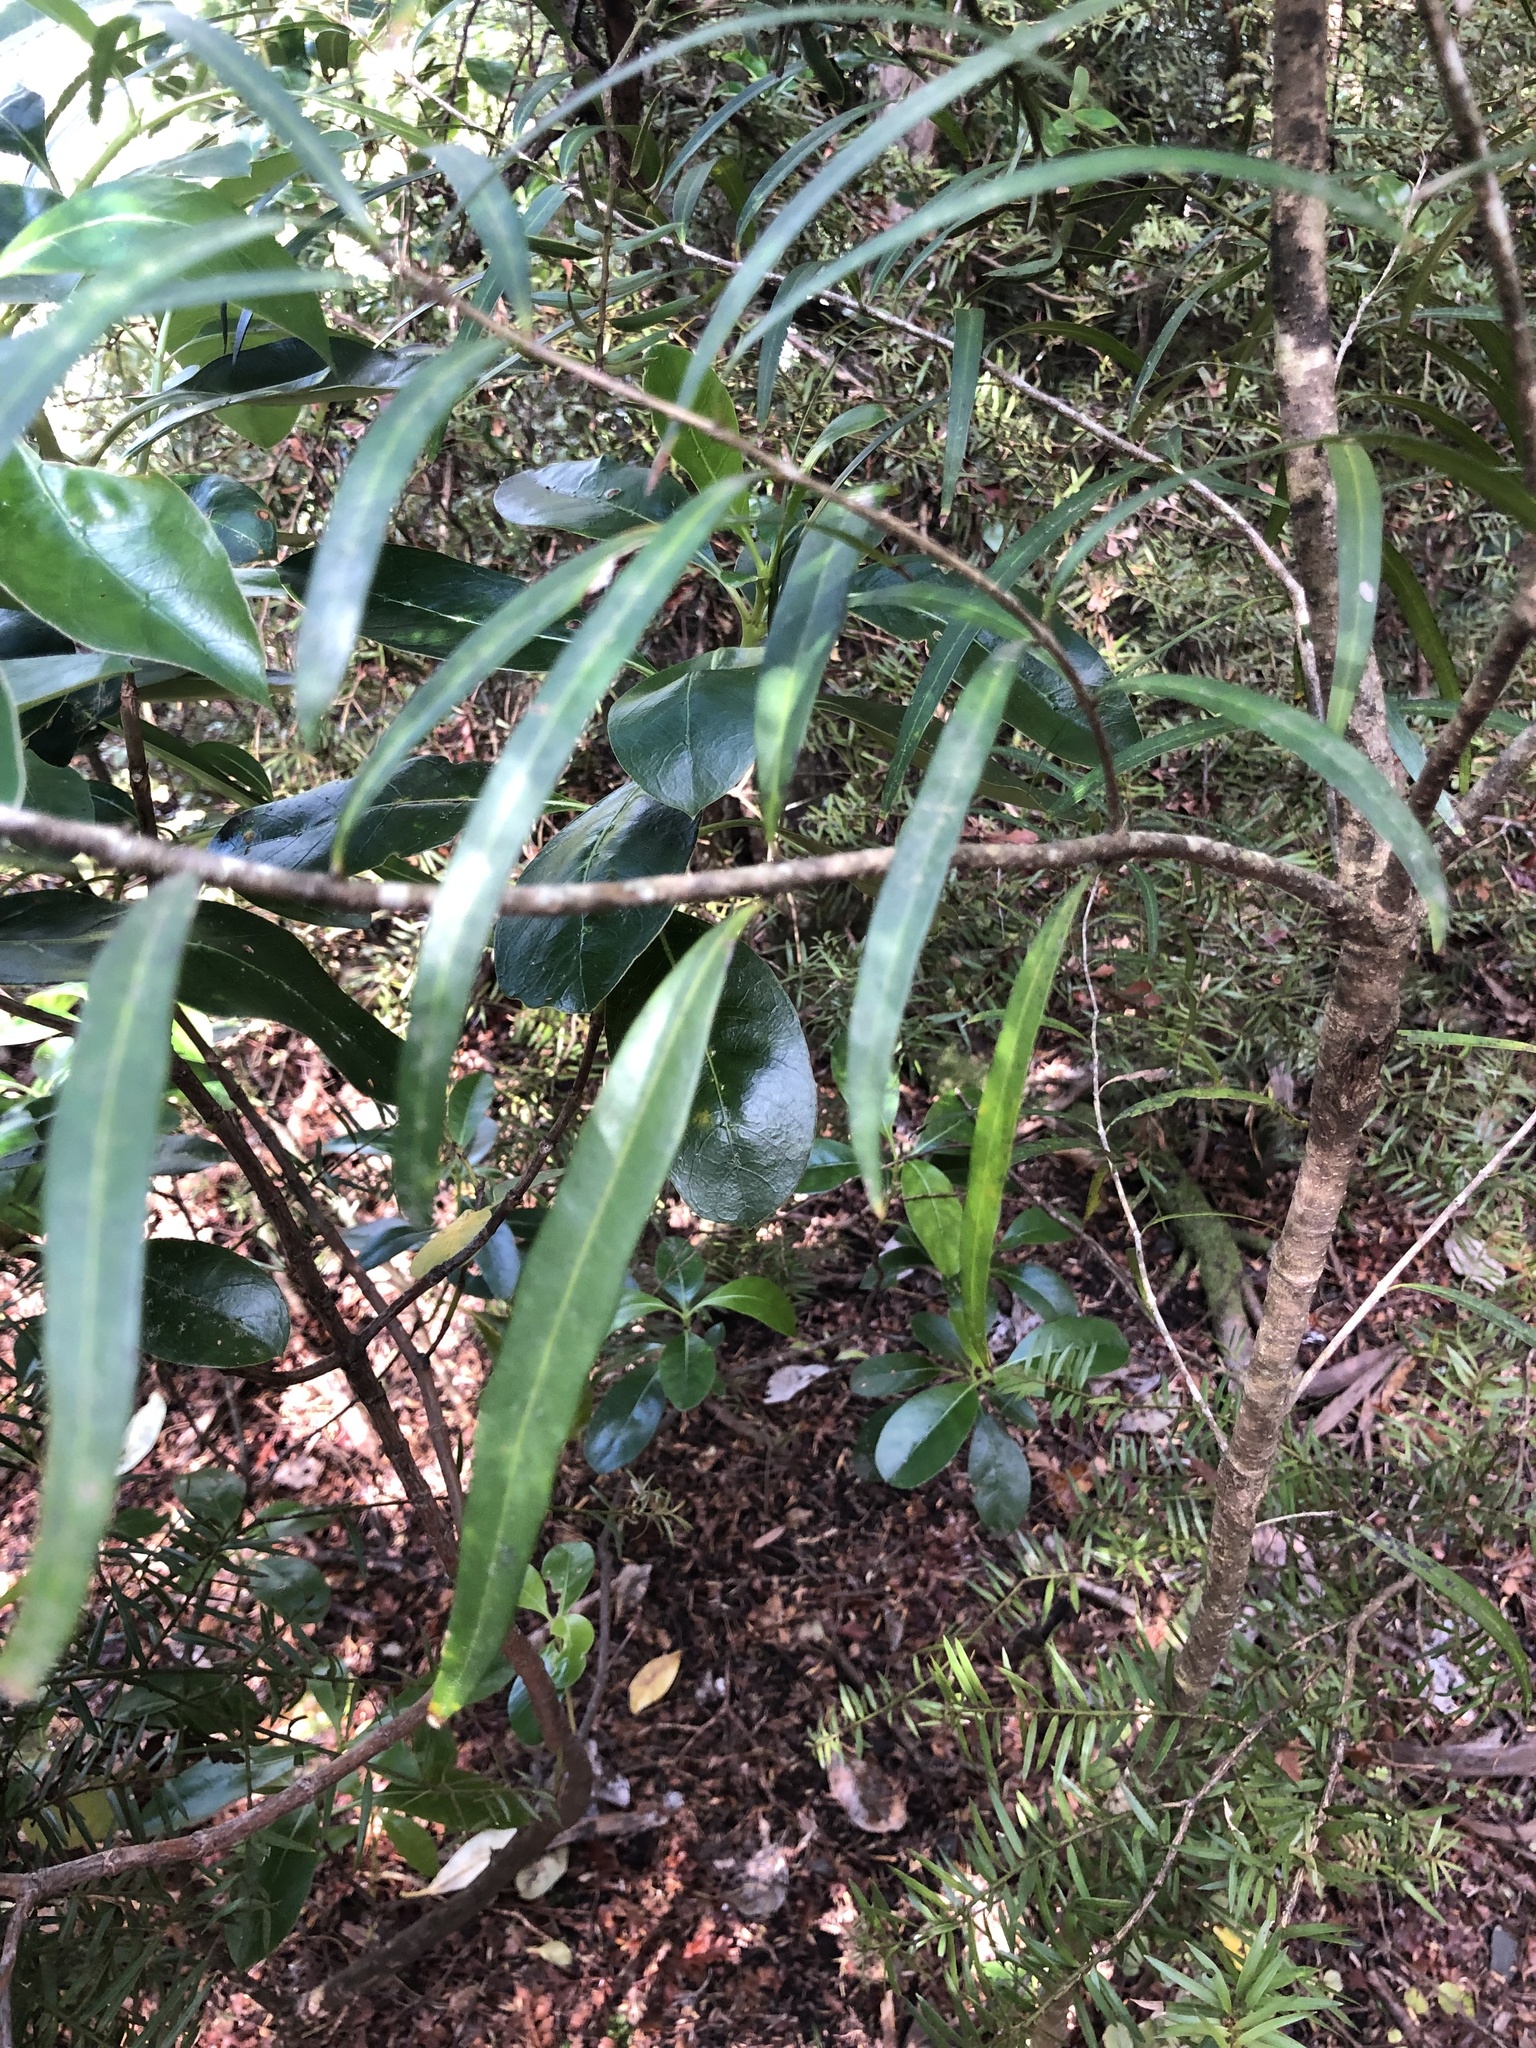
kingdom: Plantae
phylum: Tracheophyta
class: Magnoliopsida
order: Lamiales
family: Oleaceae
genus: Nestegis
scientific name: Nestegis lanceolata
